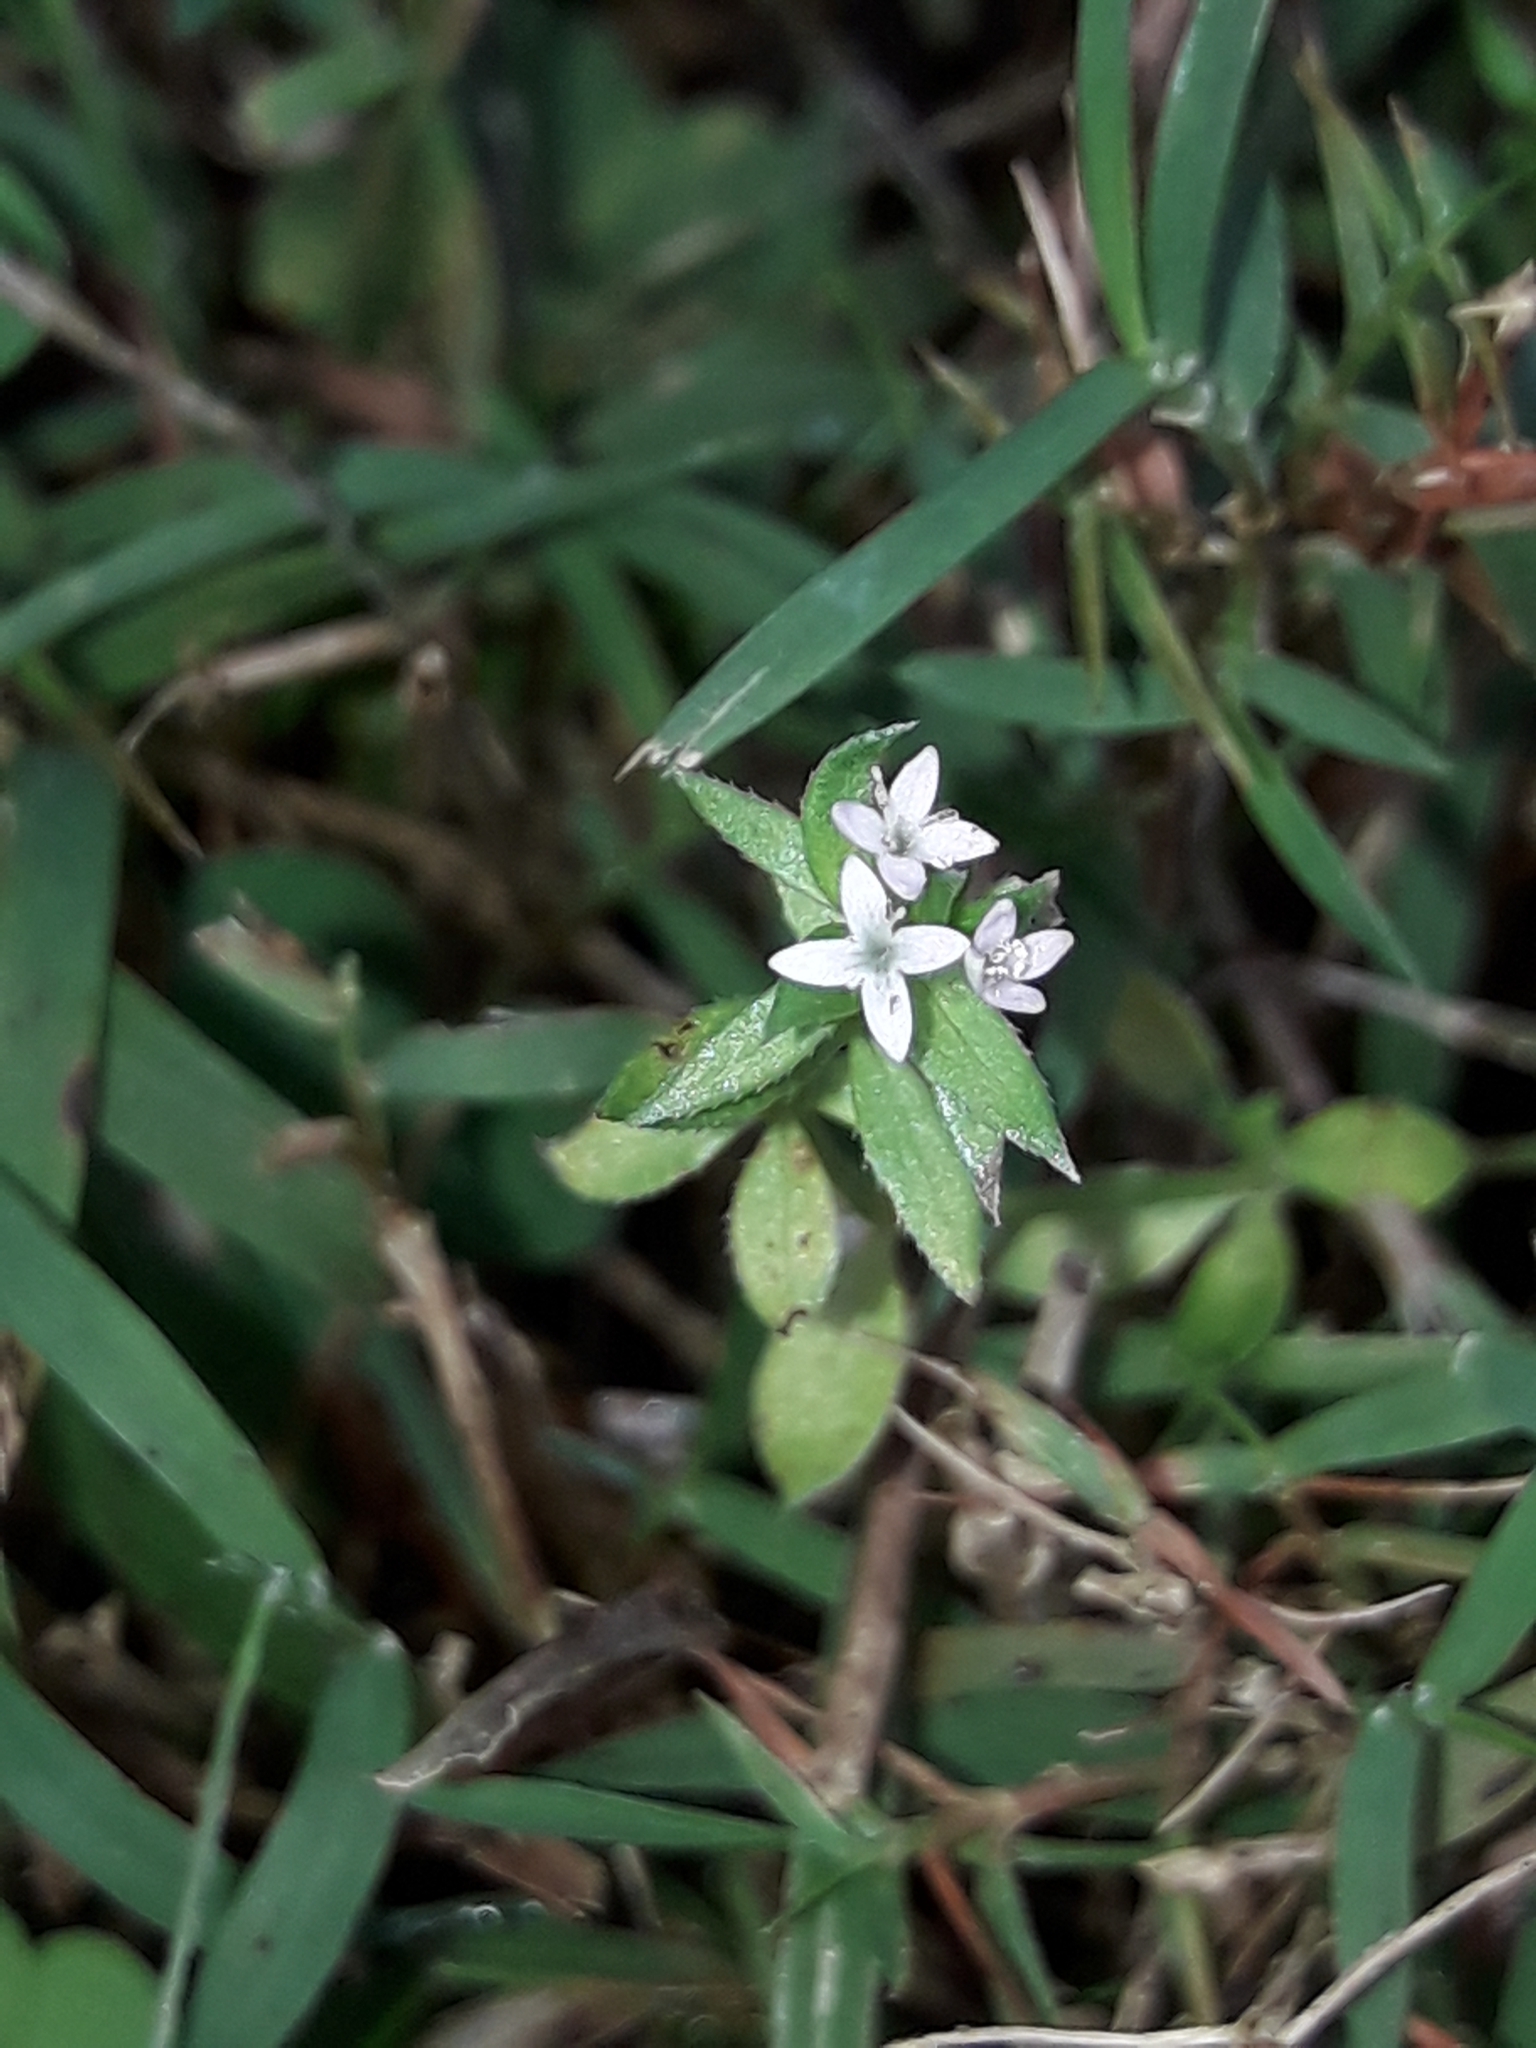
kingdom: Plantae
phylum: Tracheophyta
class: Magnoliopsida
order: Gentianales
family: Rubiaceae
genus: Sherardia
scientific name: Sherardia arvensis
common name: Field madder
